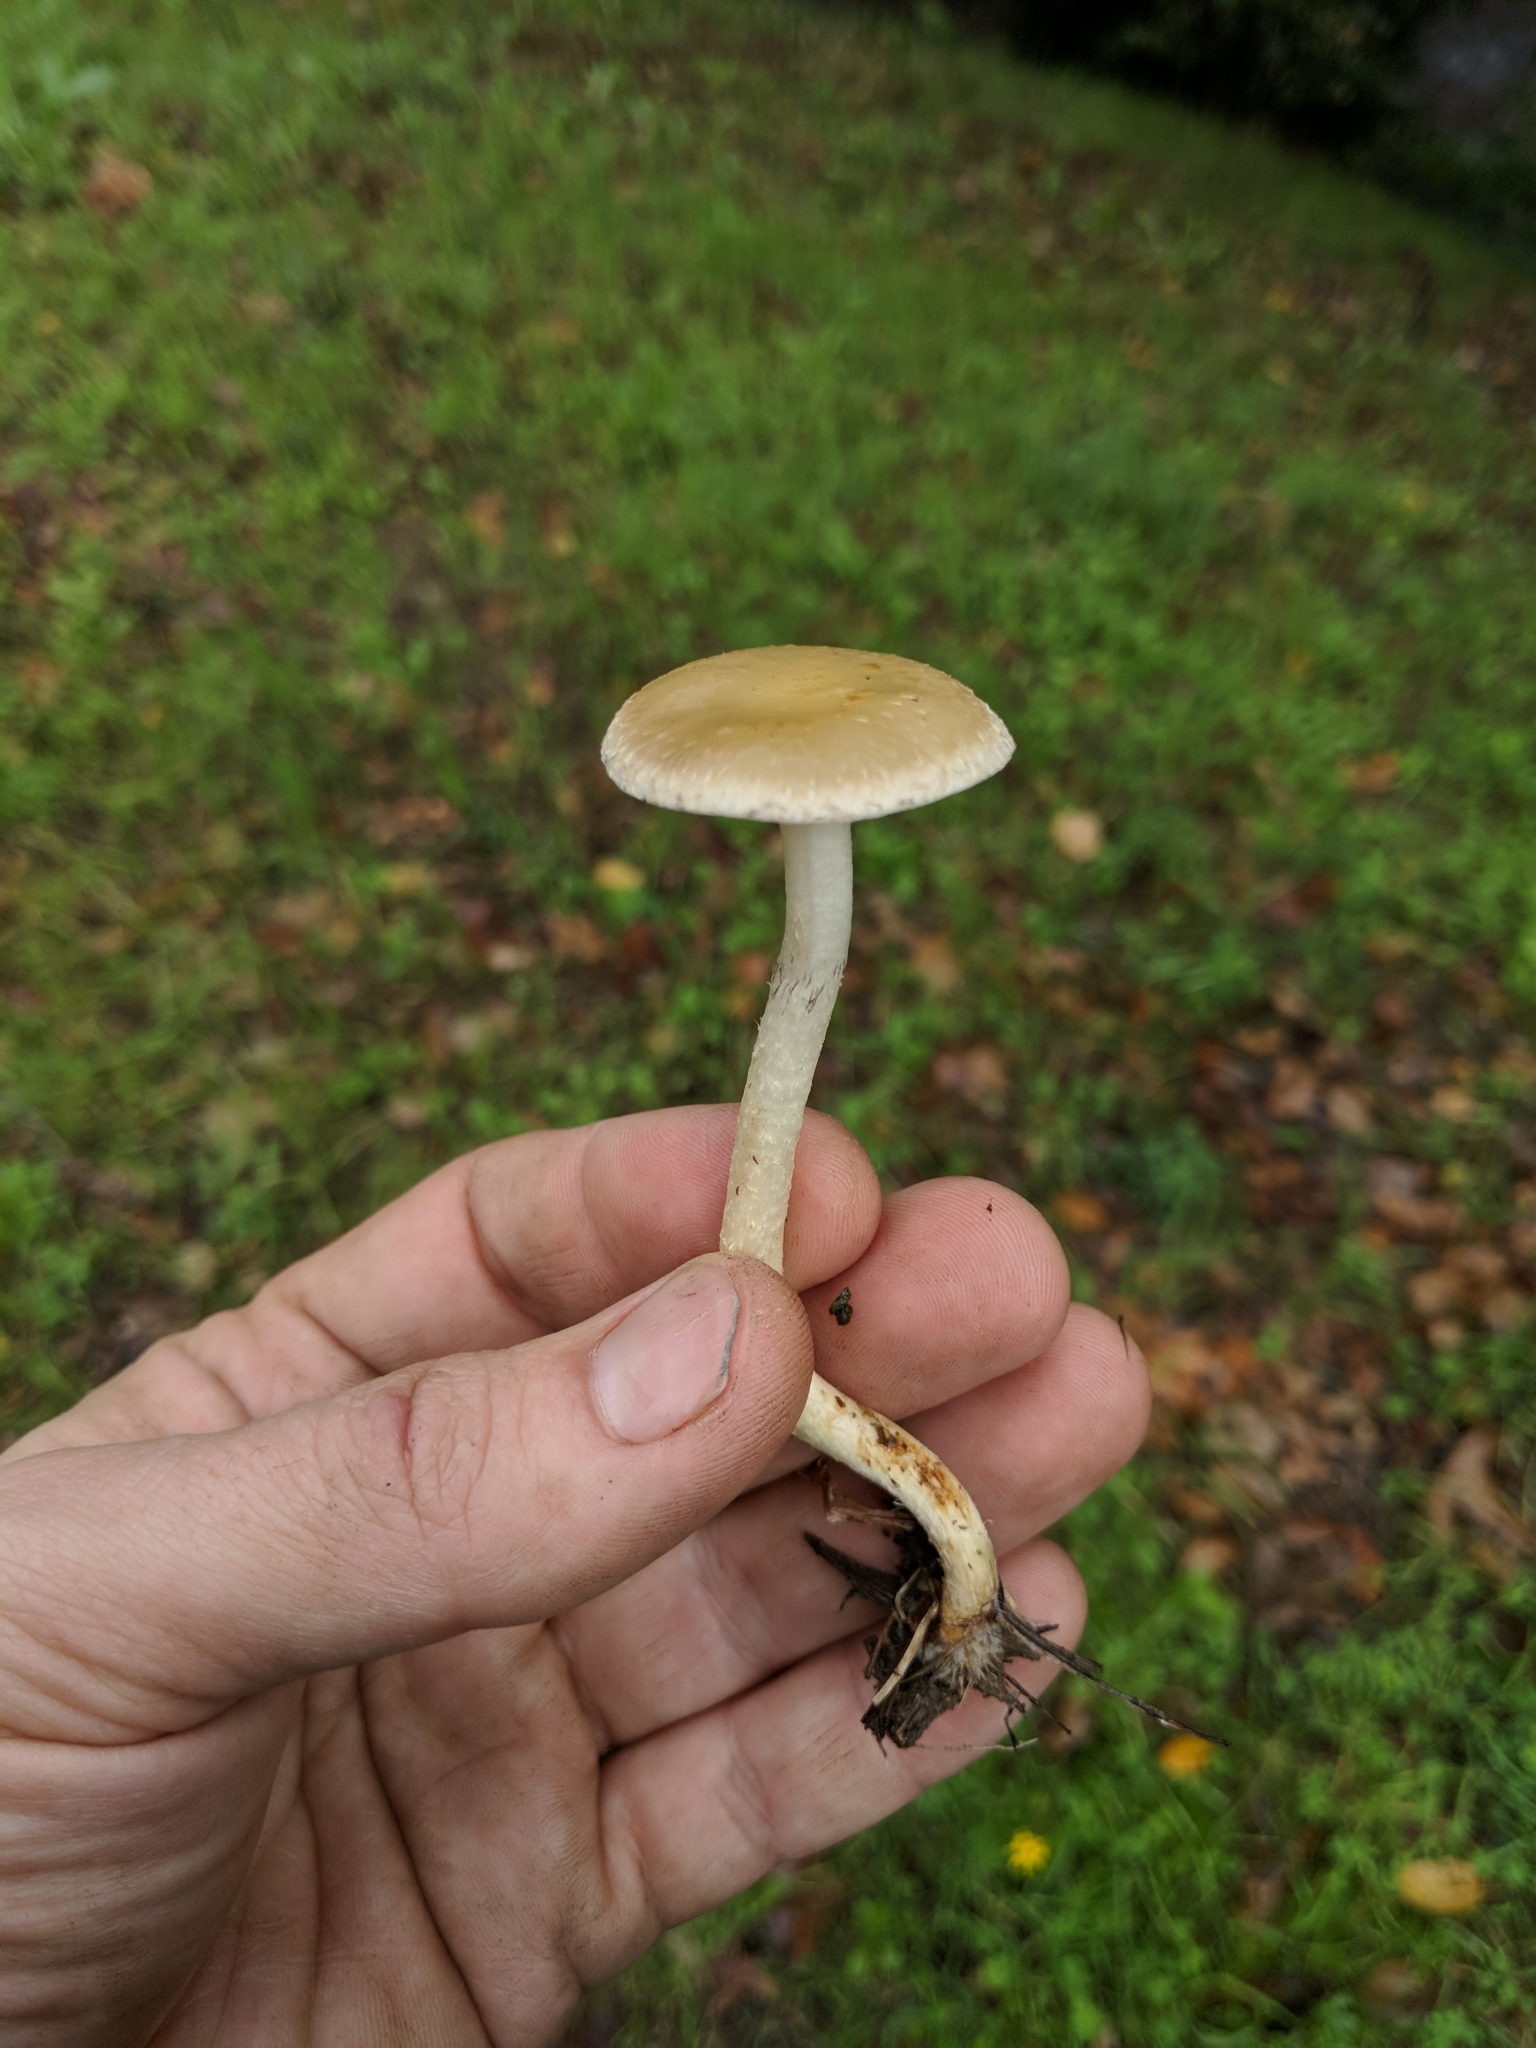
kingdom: Fungi
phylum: Basidiomycota
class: Agaricomycetes
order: Agaricales
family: Strophariaceae
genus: Leratiomyces
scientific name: Leratiomyces percevalii
